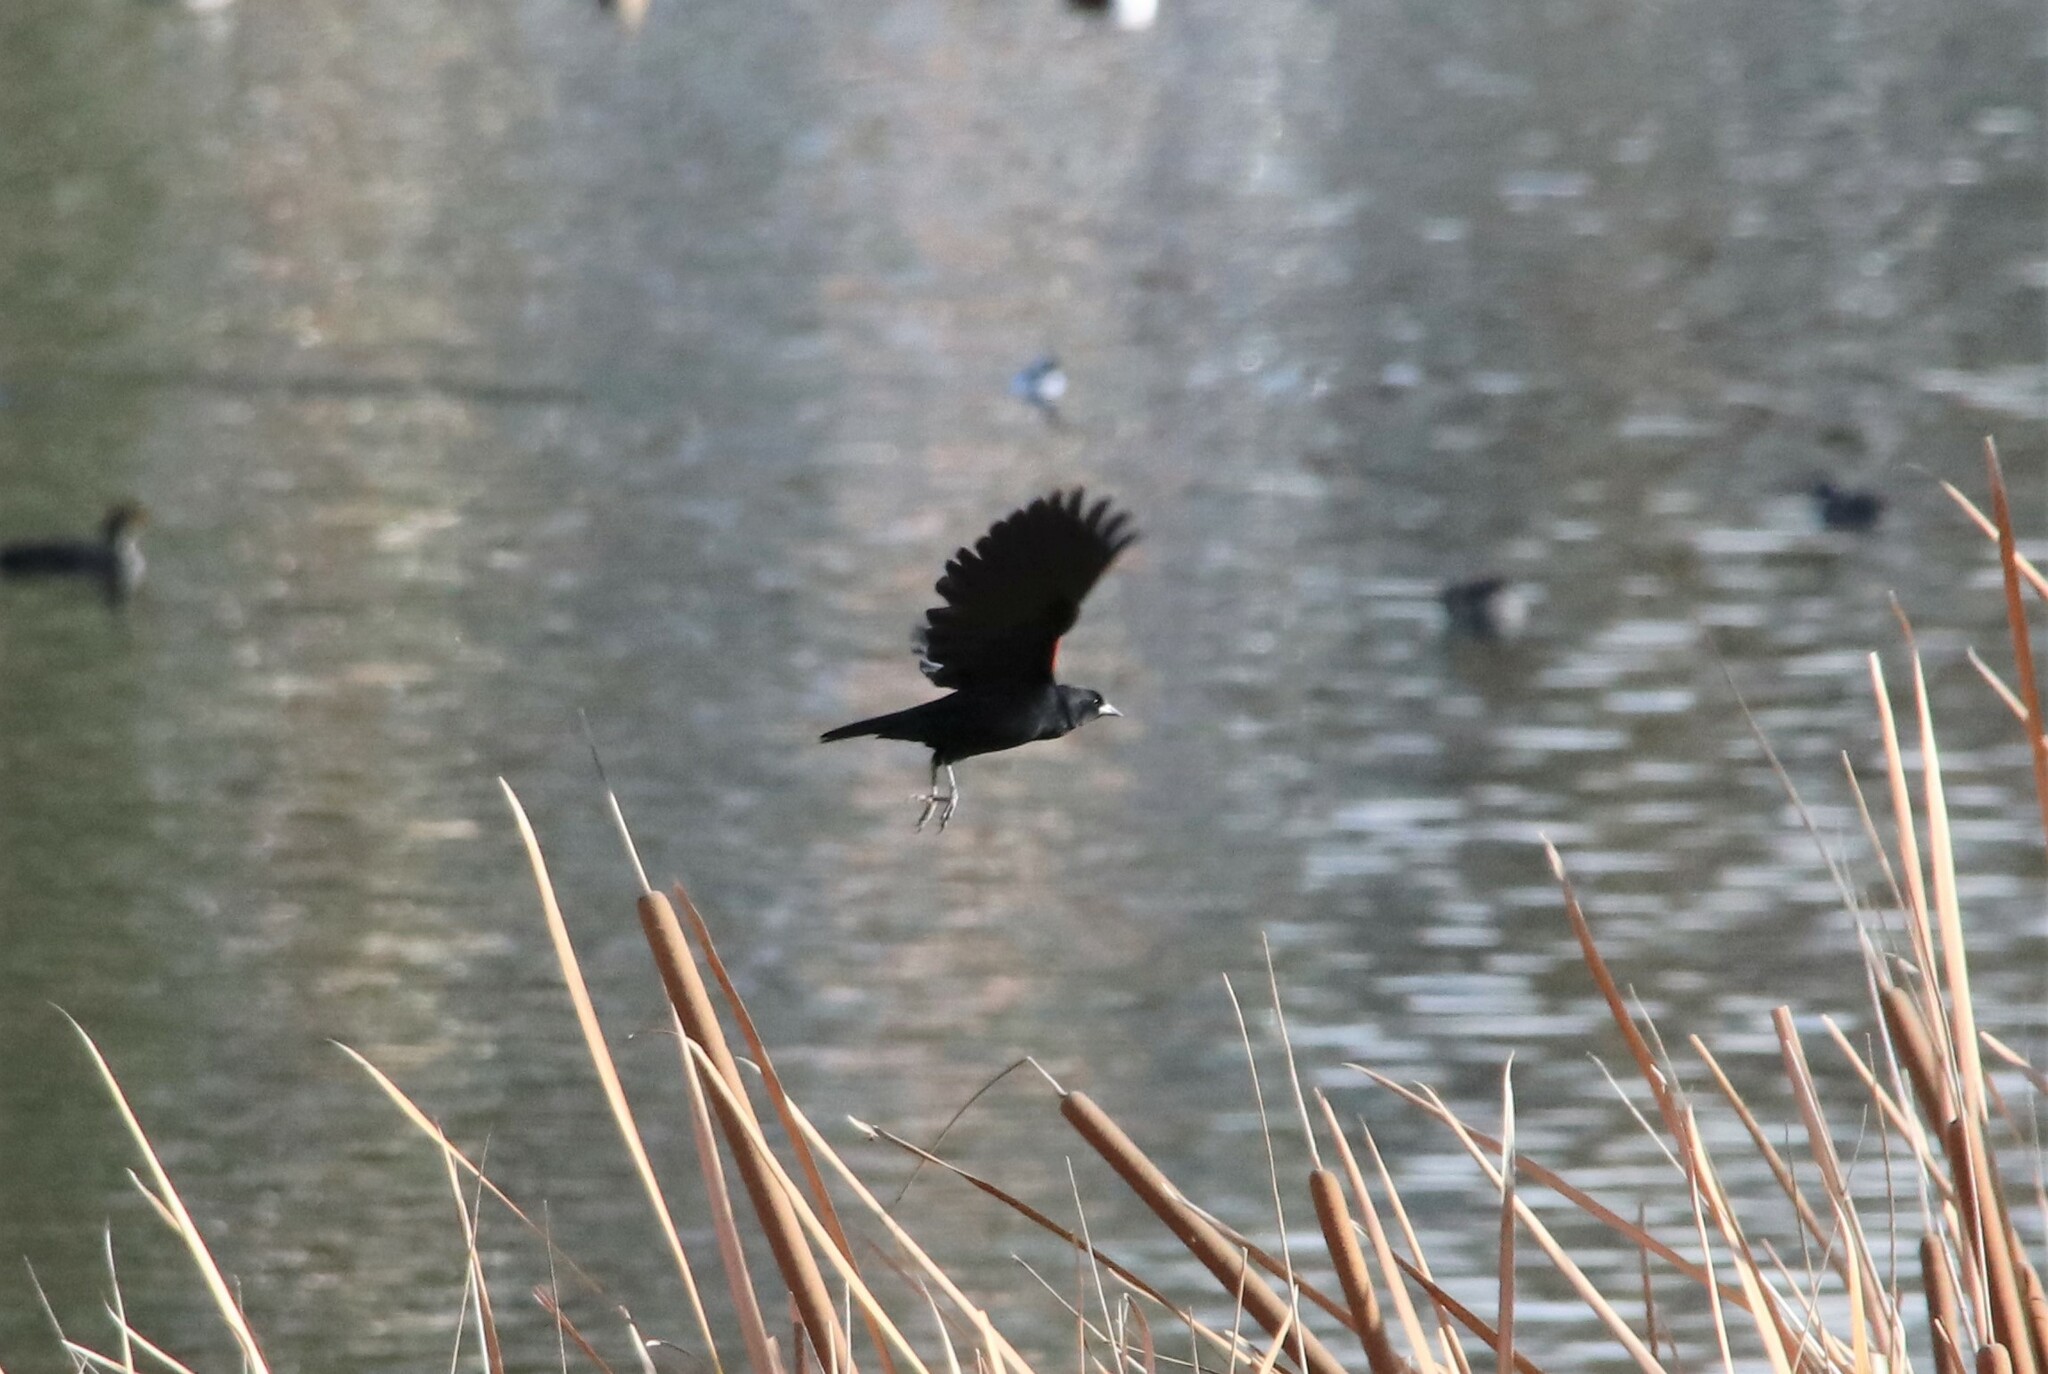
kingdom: Animalia
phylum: Chordata
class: Aves
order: Passeriformes
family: Icteridae
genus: Agelaius
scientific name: Agelaius phoeniceus
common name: Red-winged blackbird
